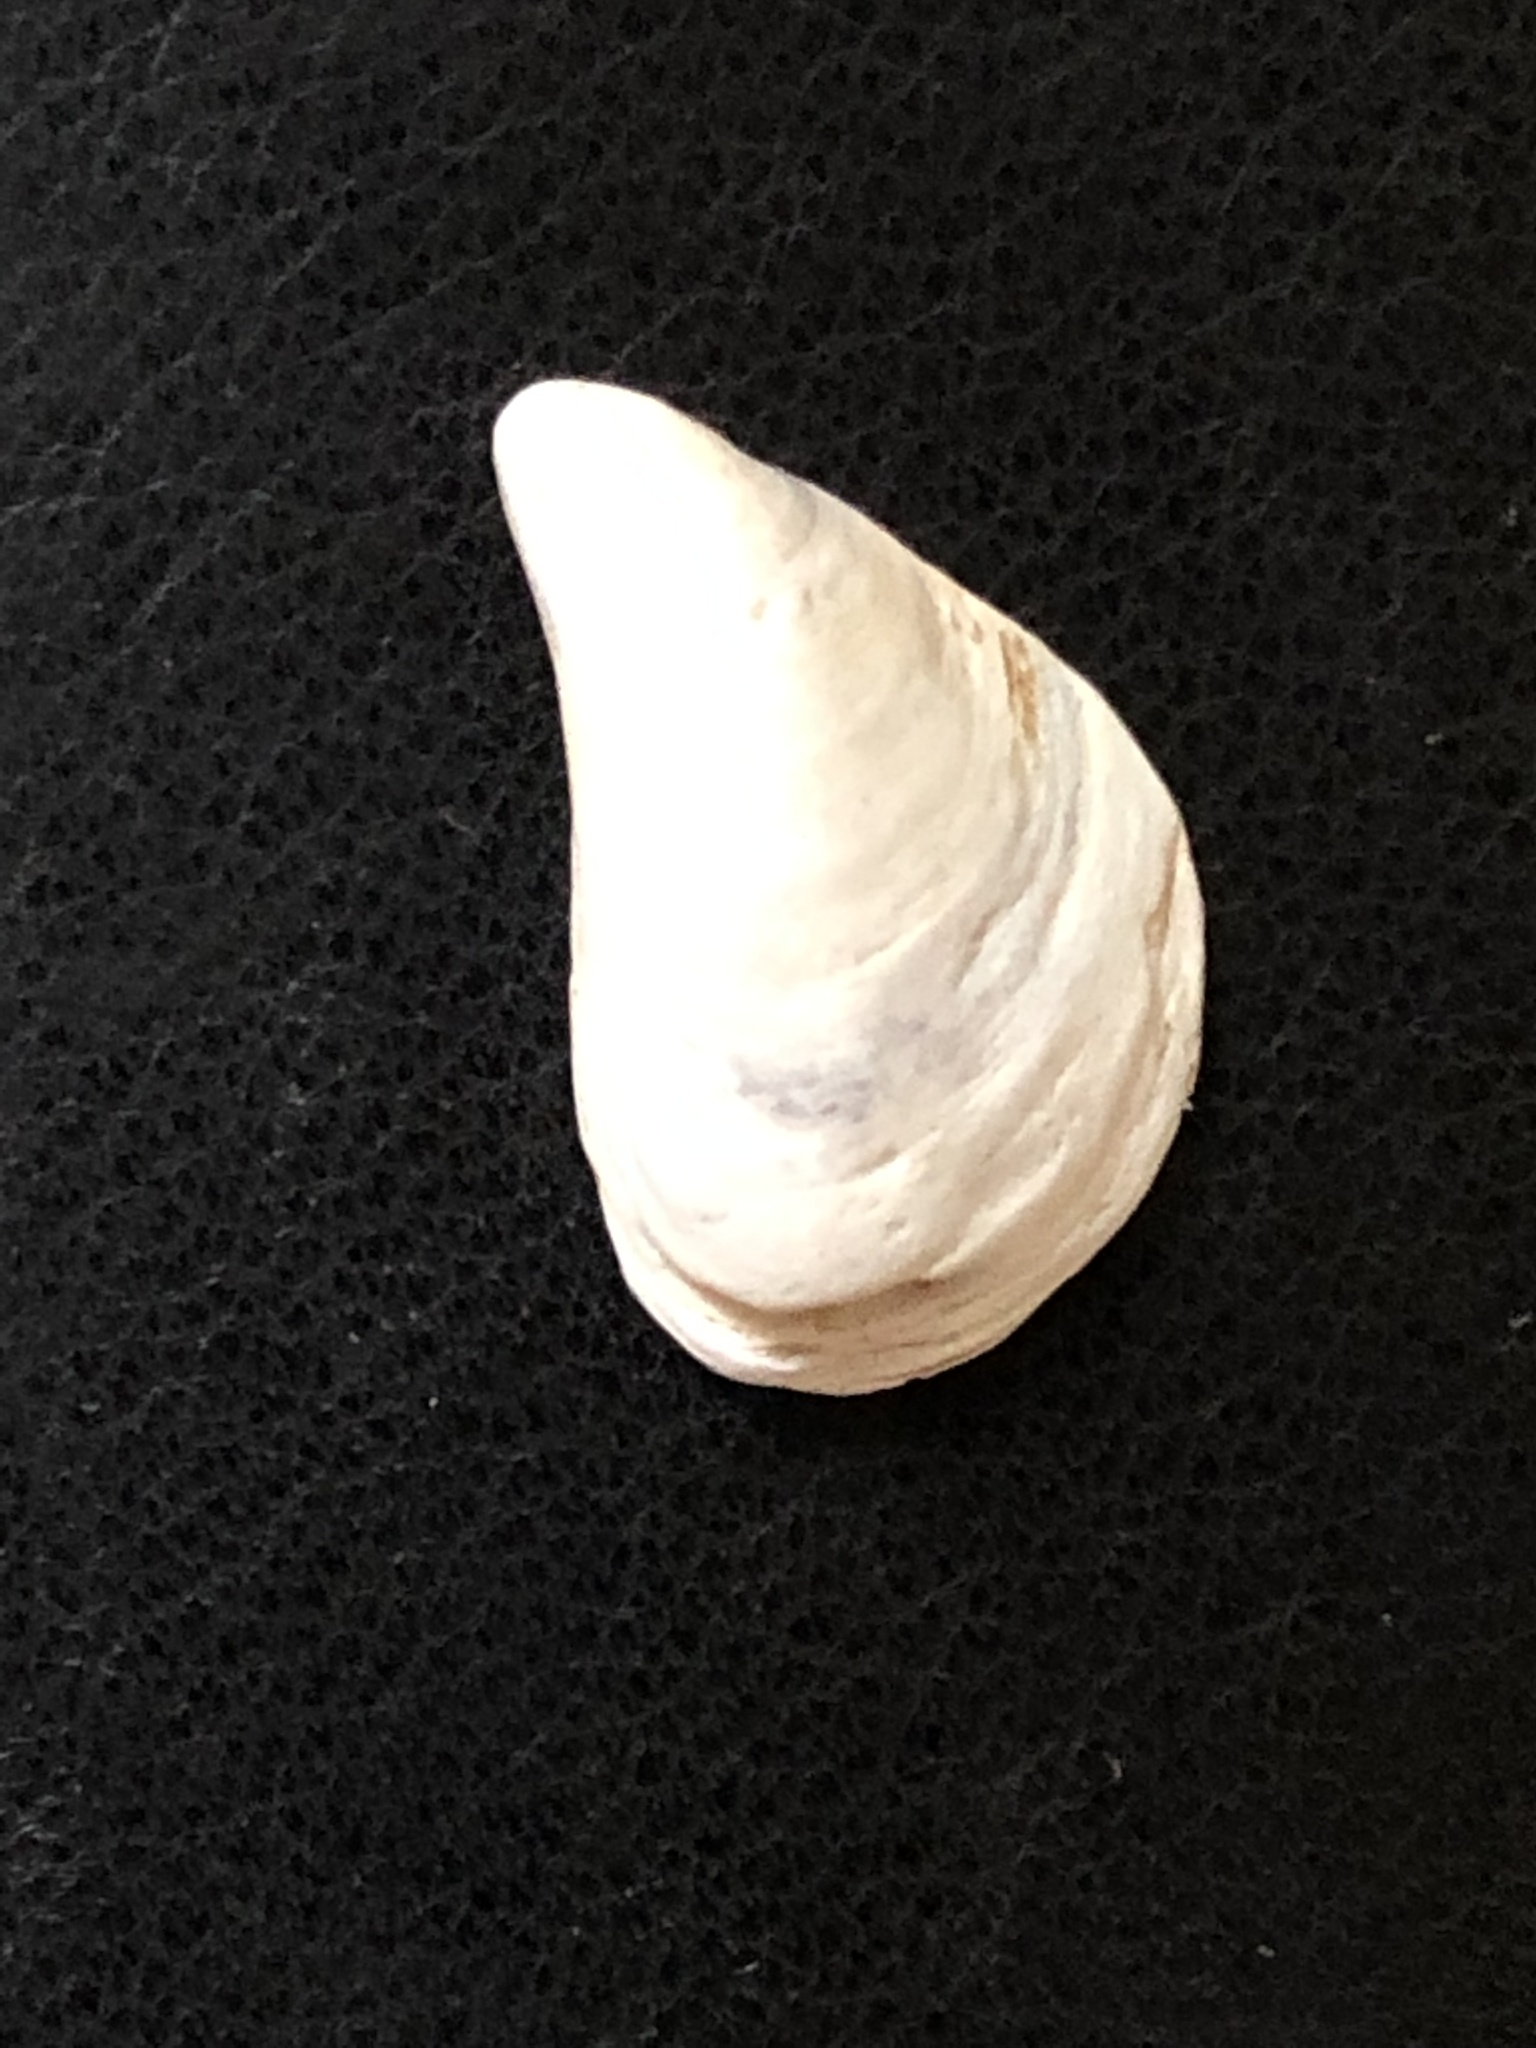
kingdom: Animalia
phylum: Mollusca
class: Bivalvia
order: Myida
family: Dreissenidae
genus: Dreissena
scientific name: Dreissena bugensis
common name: Quagga mussel
